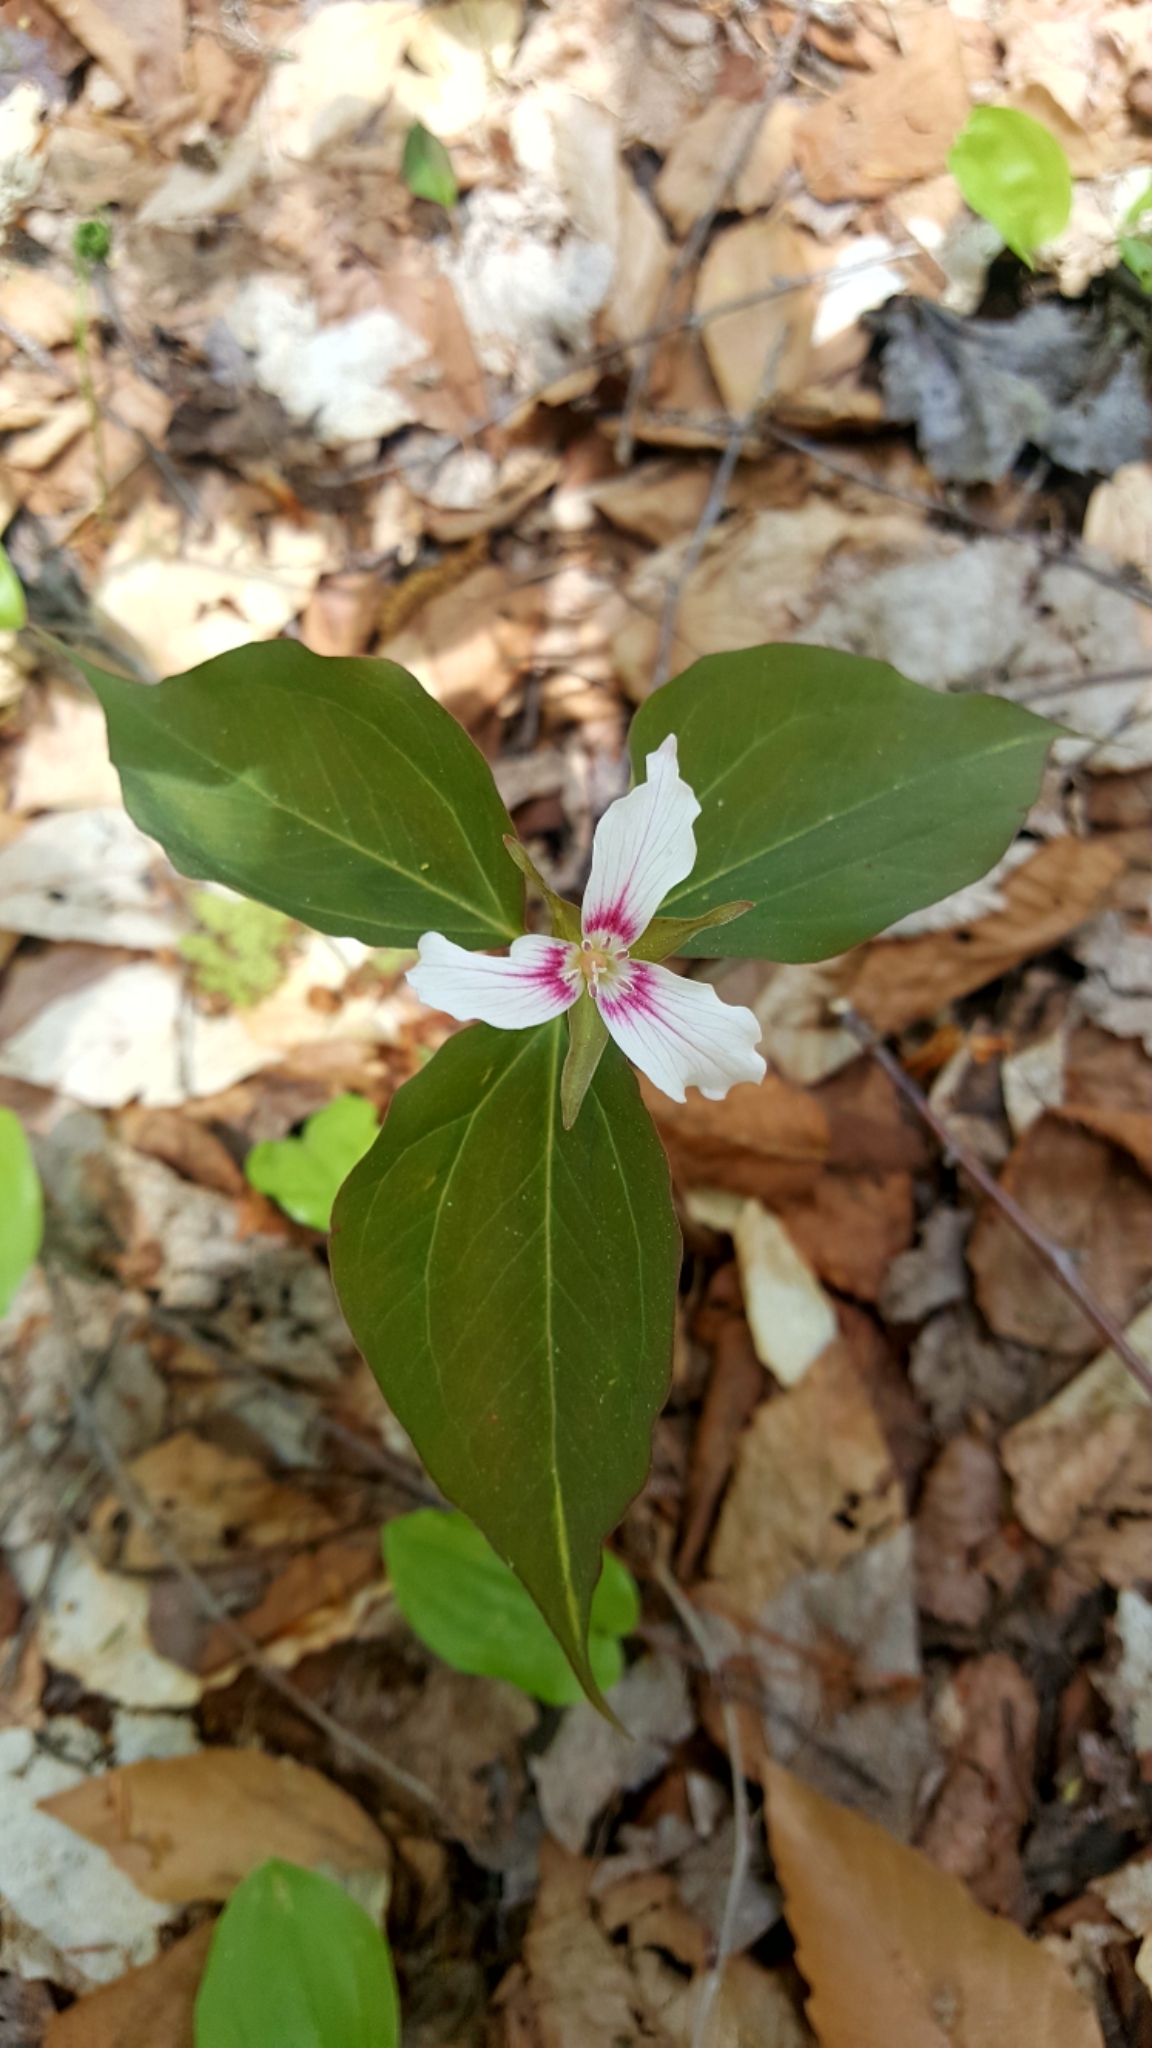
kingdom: Plantae
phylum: Tracheophyta
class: Liliopsida
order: Liliales
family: Melanthiaceae
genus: Trillium
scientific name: Trillium undulatum
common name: Paint trillium
